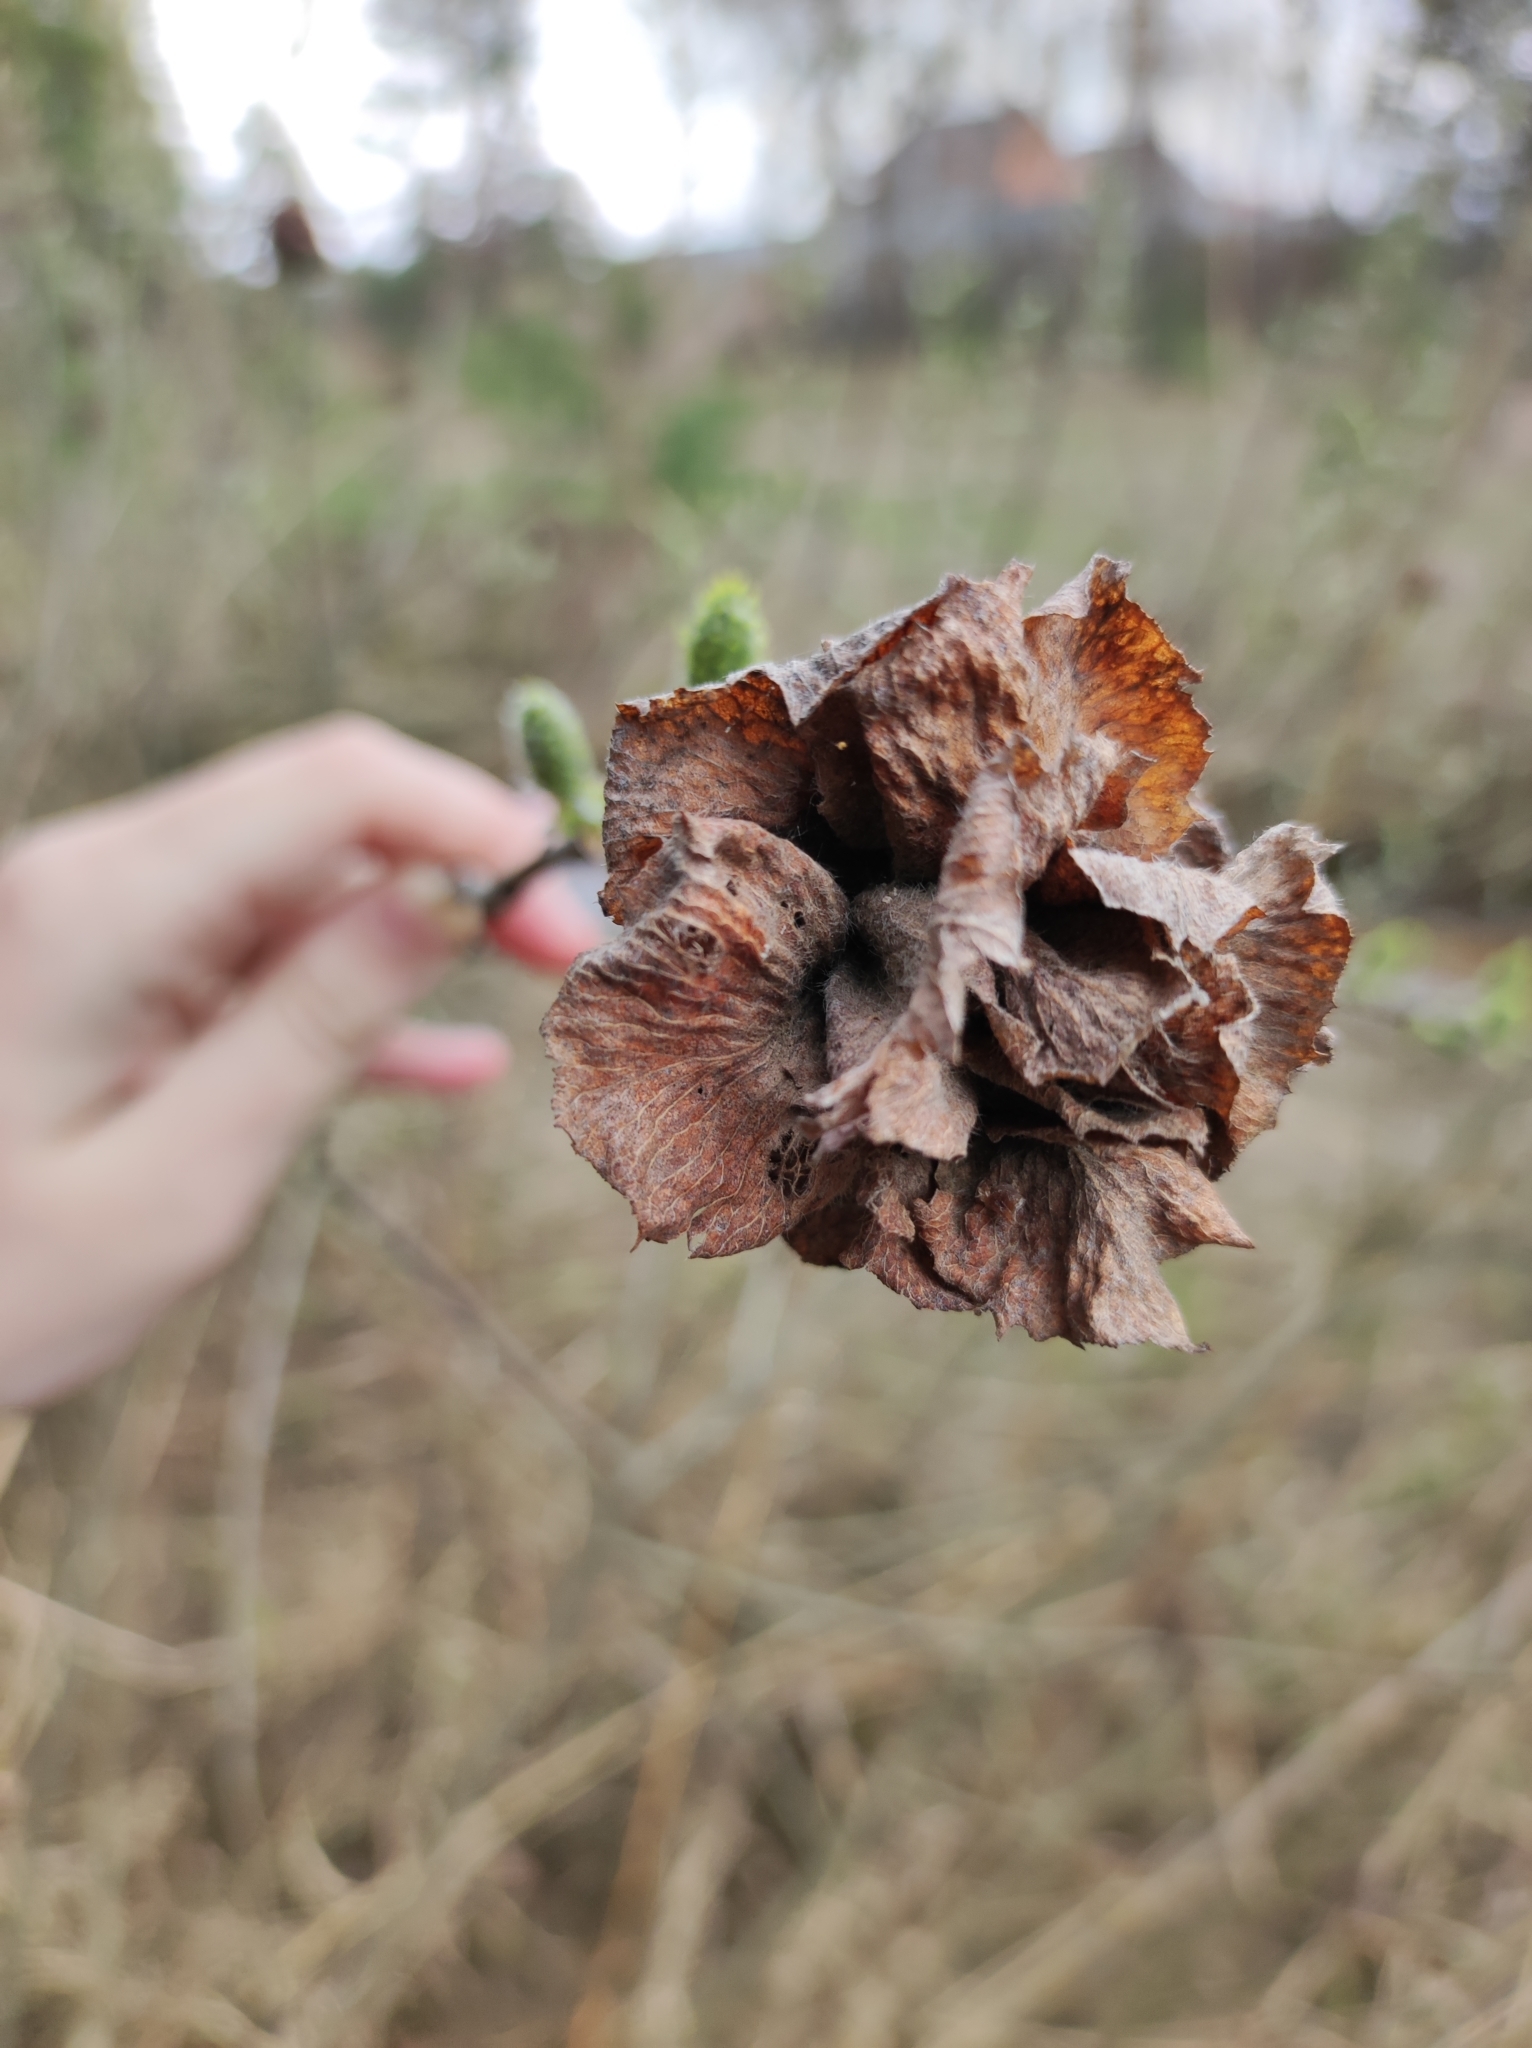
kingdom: Animalia
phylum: Arthropoda
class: Insecta
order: Diptera
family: Cecidomyiidae
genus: Rabdophaga
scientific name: Rabdophaga rosaria
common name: Willow rose gall midge
